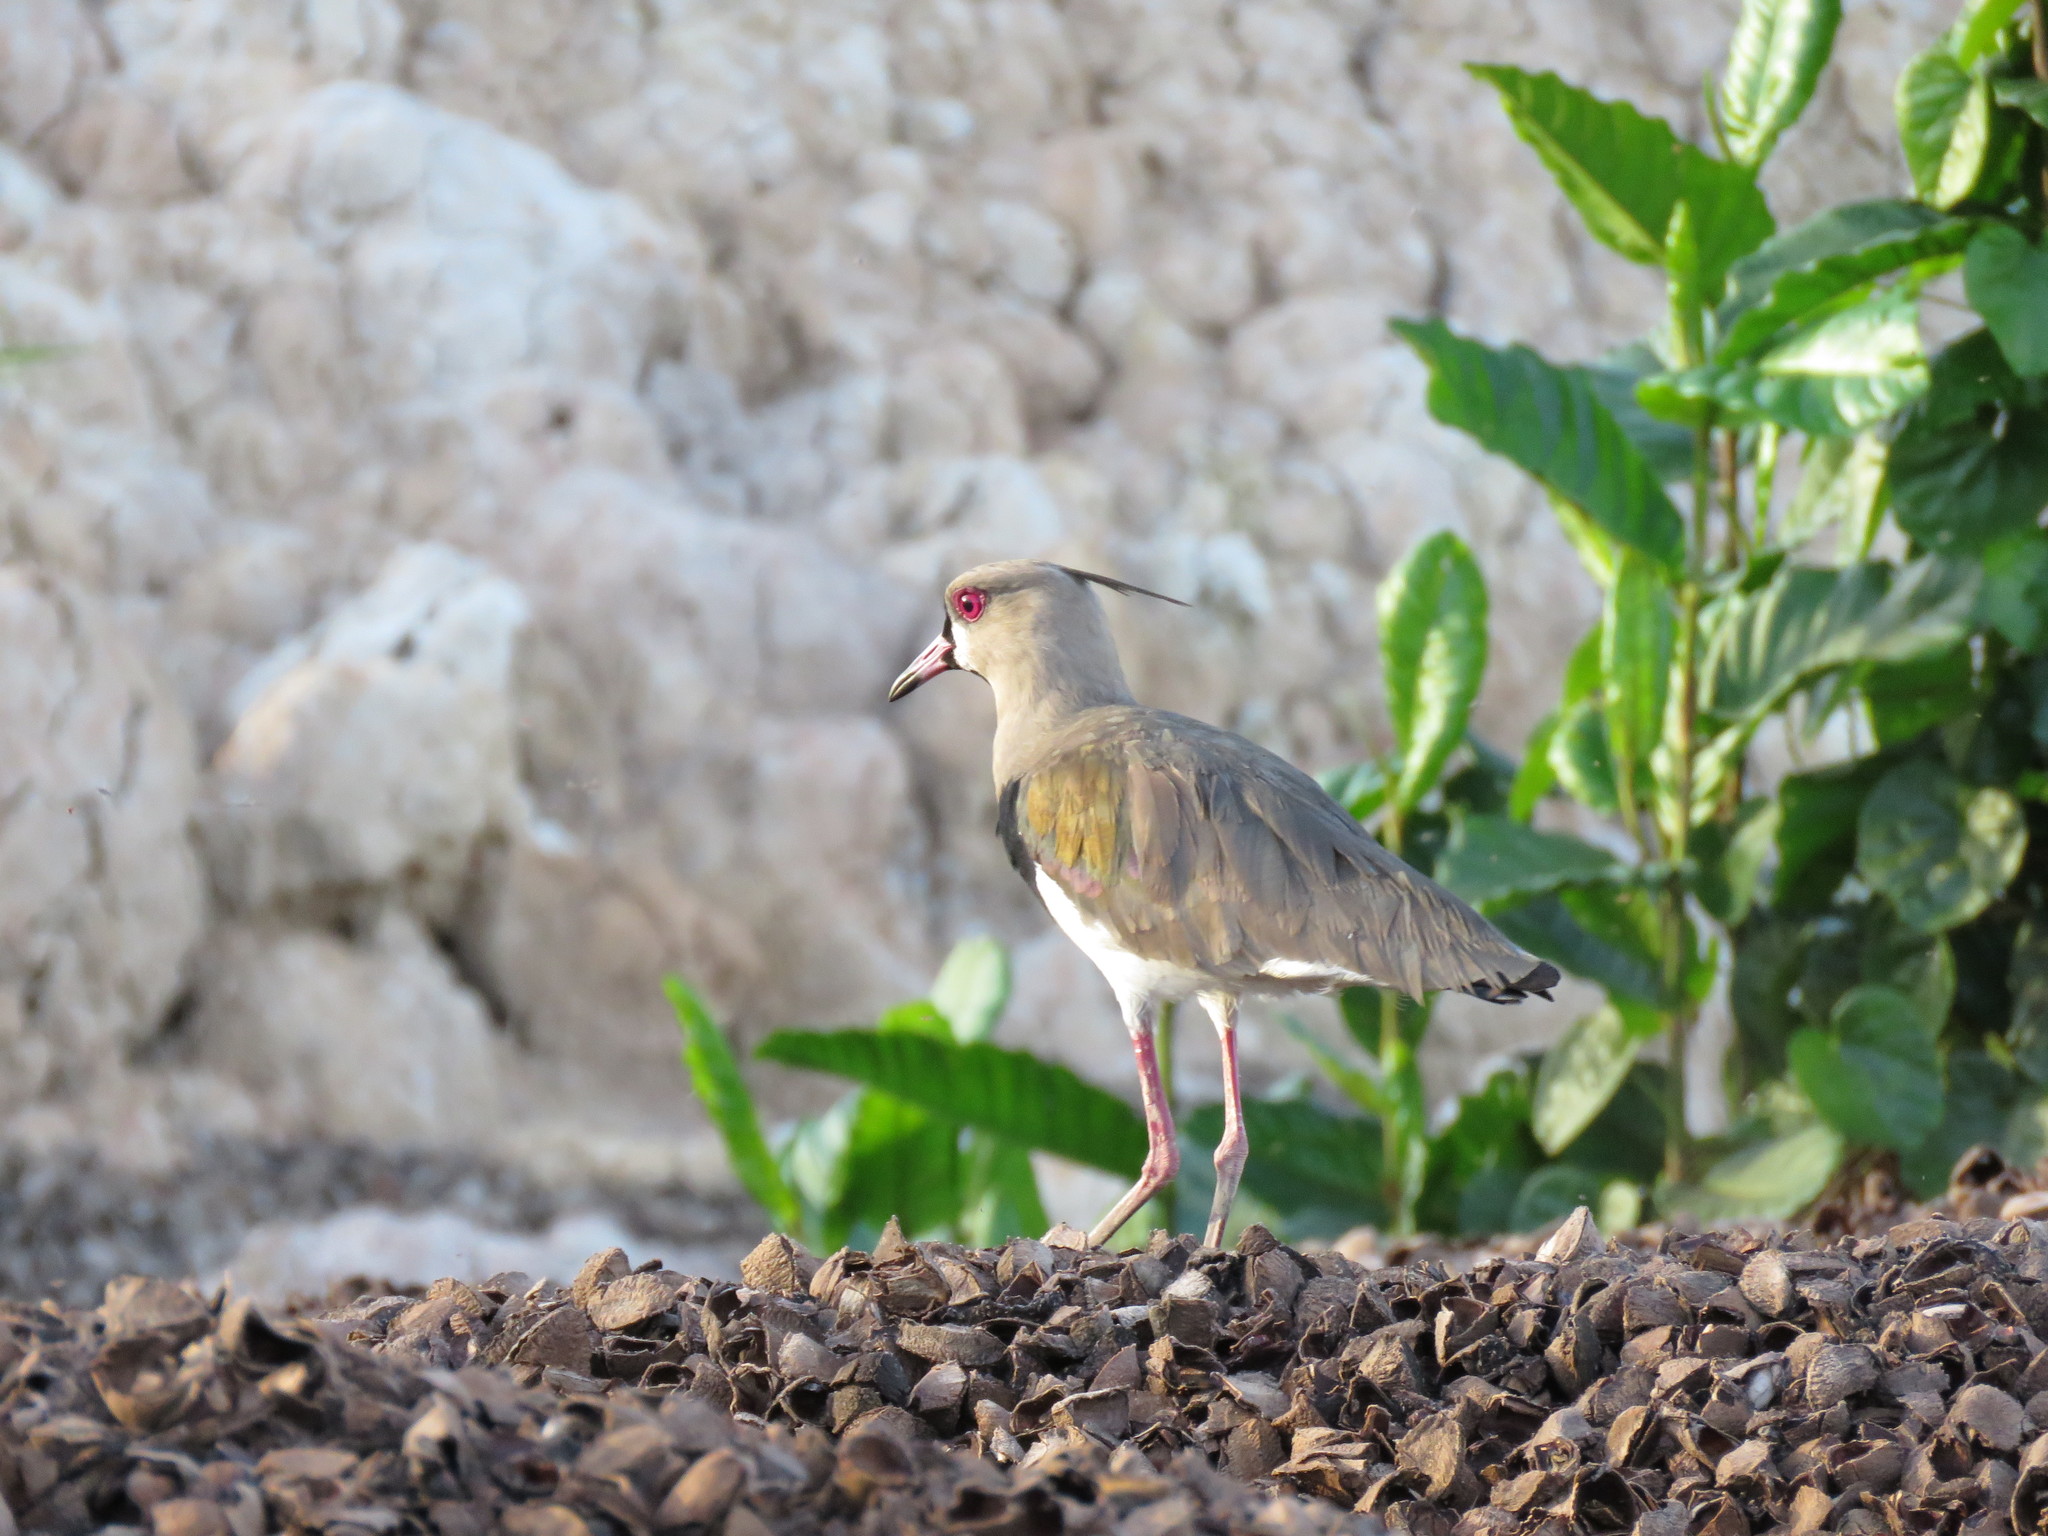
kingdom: Animalia
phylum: Chordata
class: Aves
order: Charadriiformes
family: Charadriidae
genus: Vanellus
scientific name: Vanellus chilensis
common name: Southern lapwing
